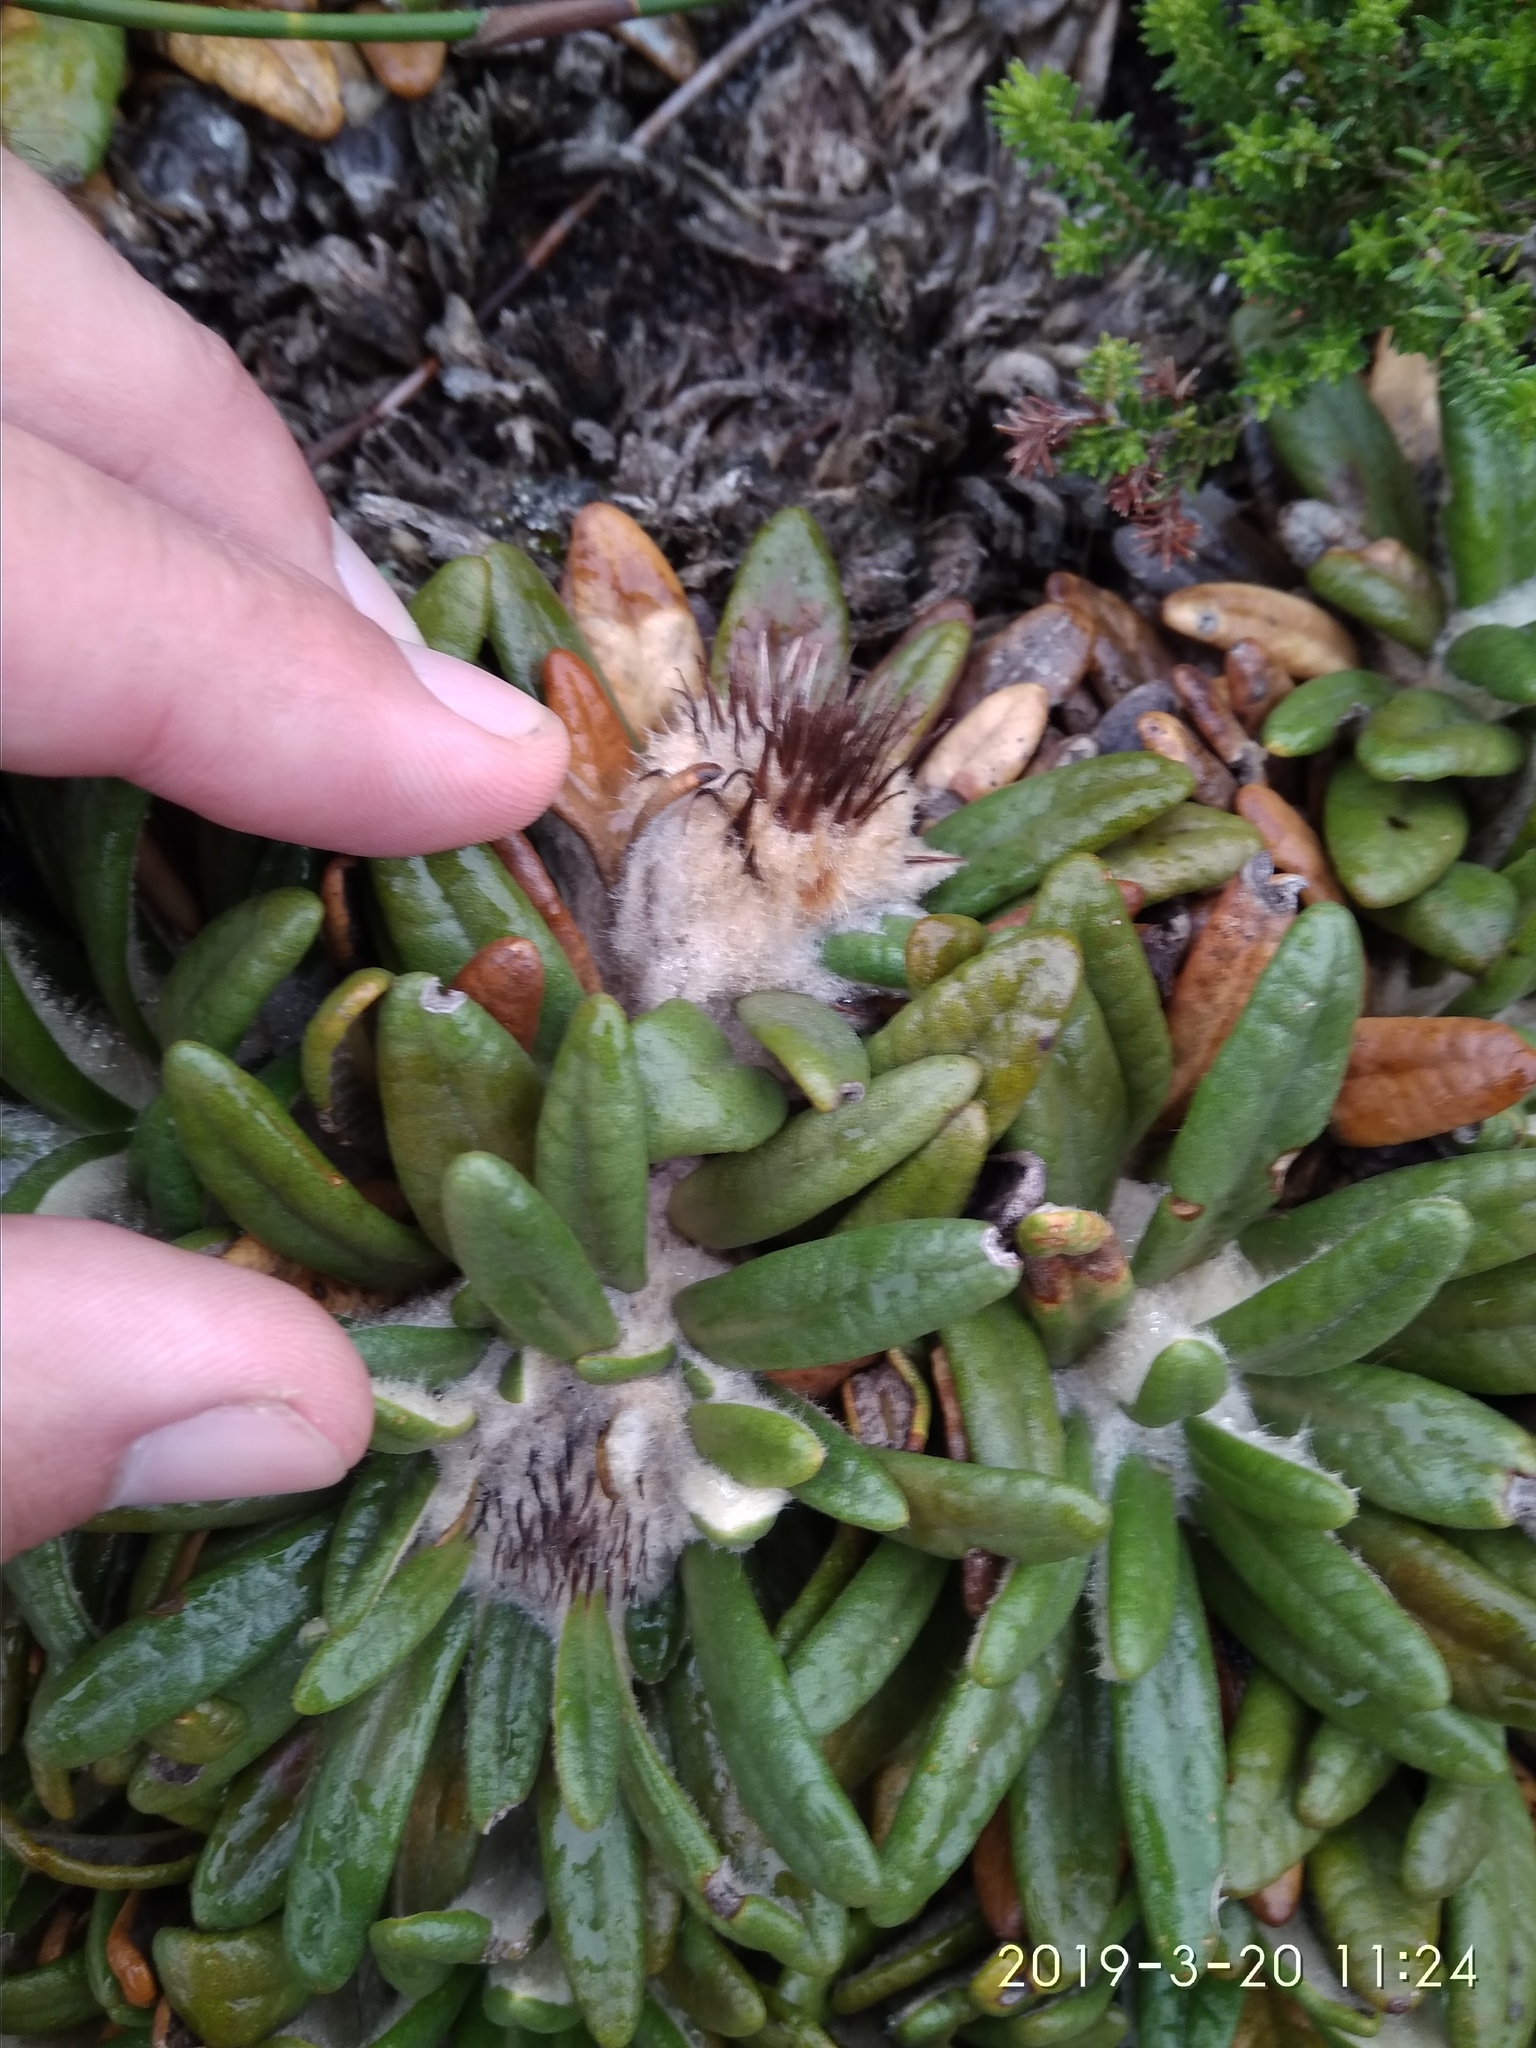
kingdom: Plantae
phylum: Tracheophyta
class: Magnoliopsida
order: Asterales
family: Asteraceae
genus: Oldenburgia
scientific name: Oldenburgia paradoxa
